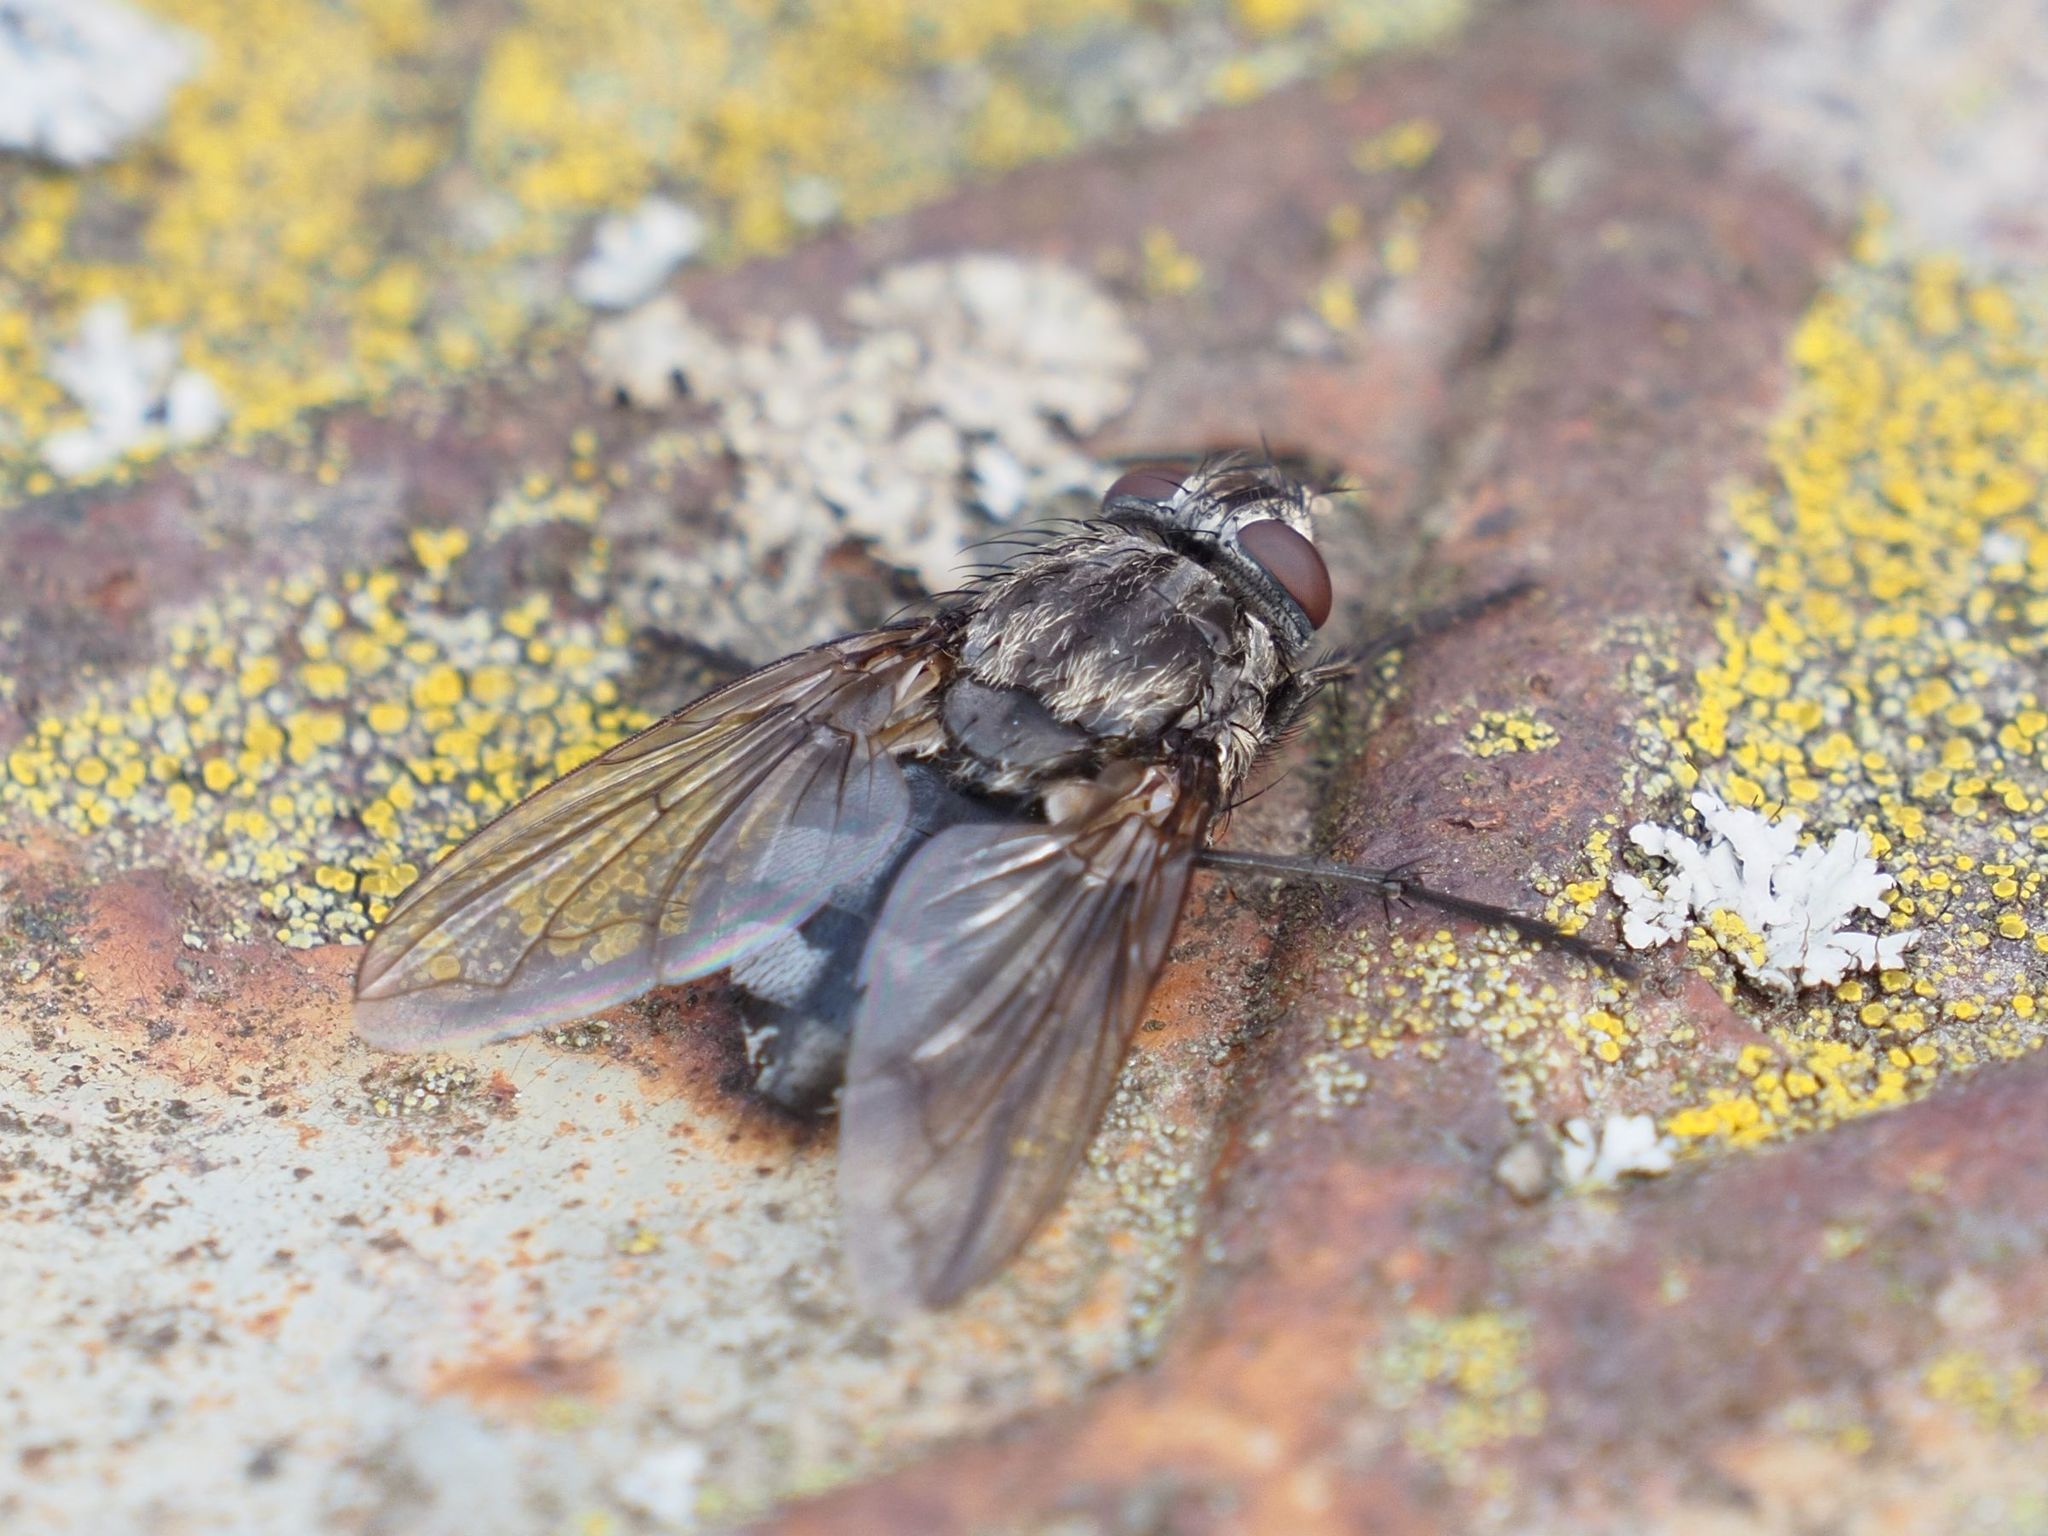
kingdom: Animalia
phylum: Arthropoda
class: Insecta
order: Diptera
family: Polleniidae
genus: Pollenia
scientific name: Pollenia vagabunda
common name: Vagabund cluster fly
